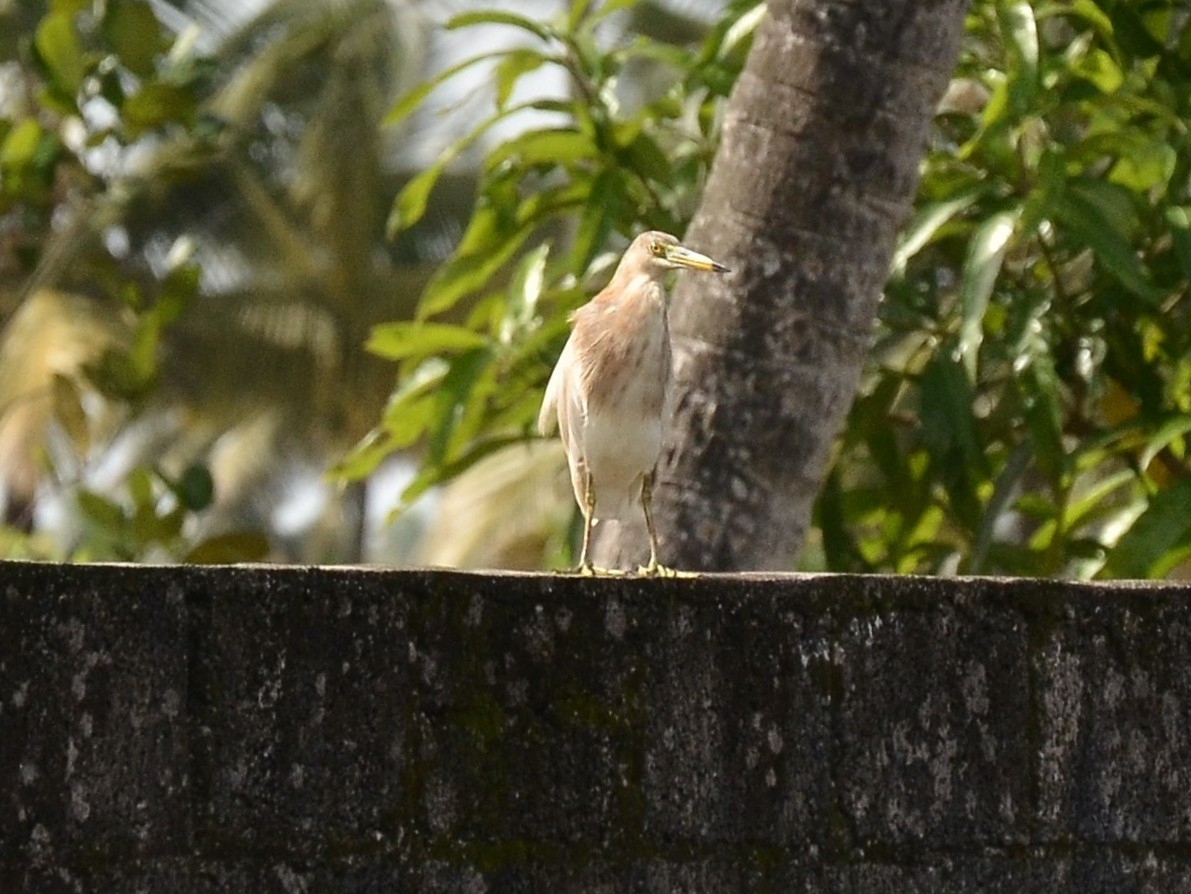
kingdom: Animalia
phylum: Chordata
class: Aves
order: Pelecaniformes
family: Ardeidae
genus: Ardeola
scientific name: Ardeola grayii
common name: Indian pond heron
